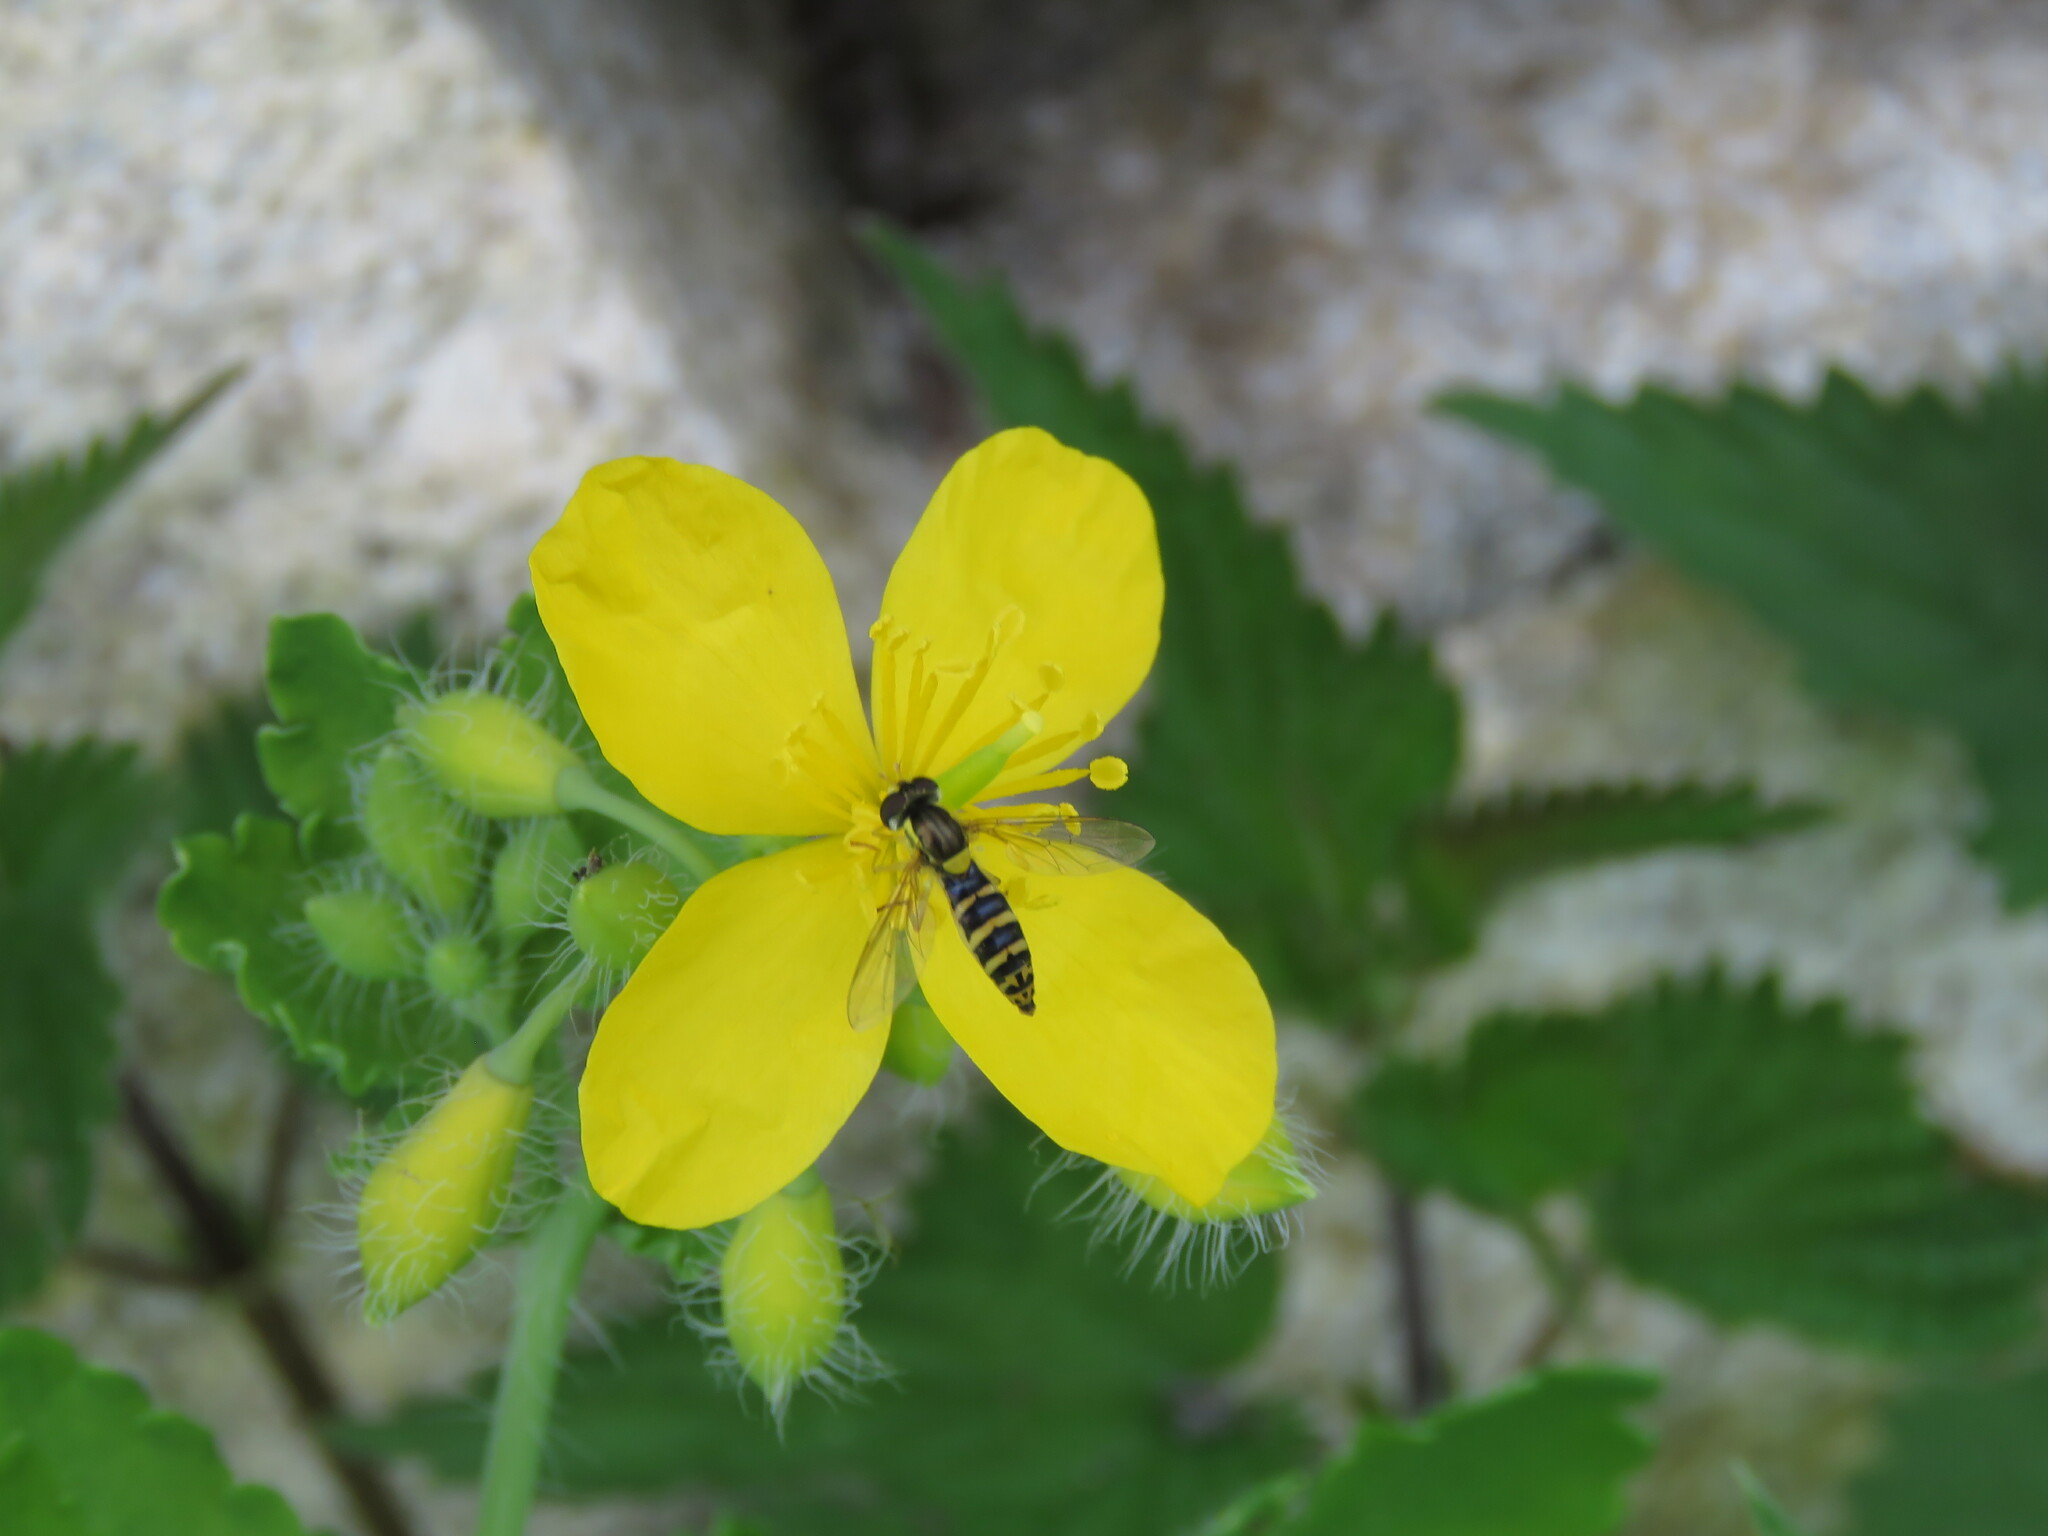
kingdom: Animalia
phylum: Arthropoda
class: Insecta
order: Diptera
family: Syrphidae
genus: Sphaerophoria
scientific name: Sphaerophoria
